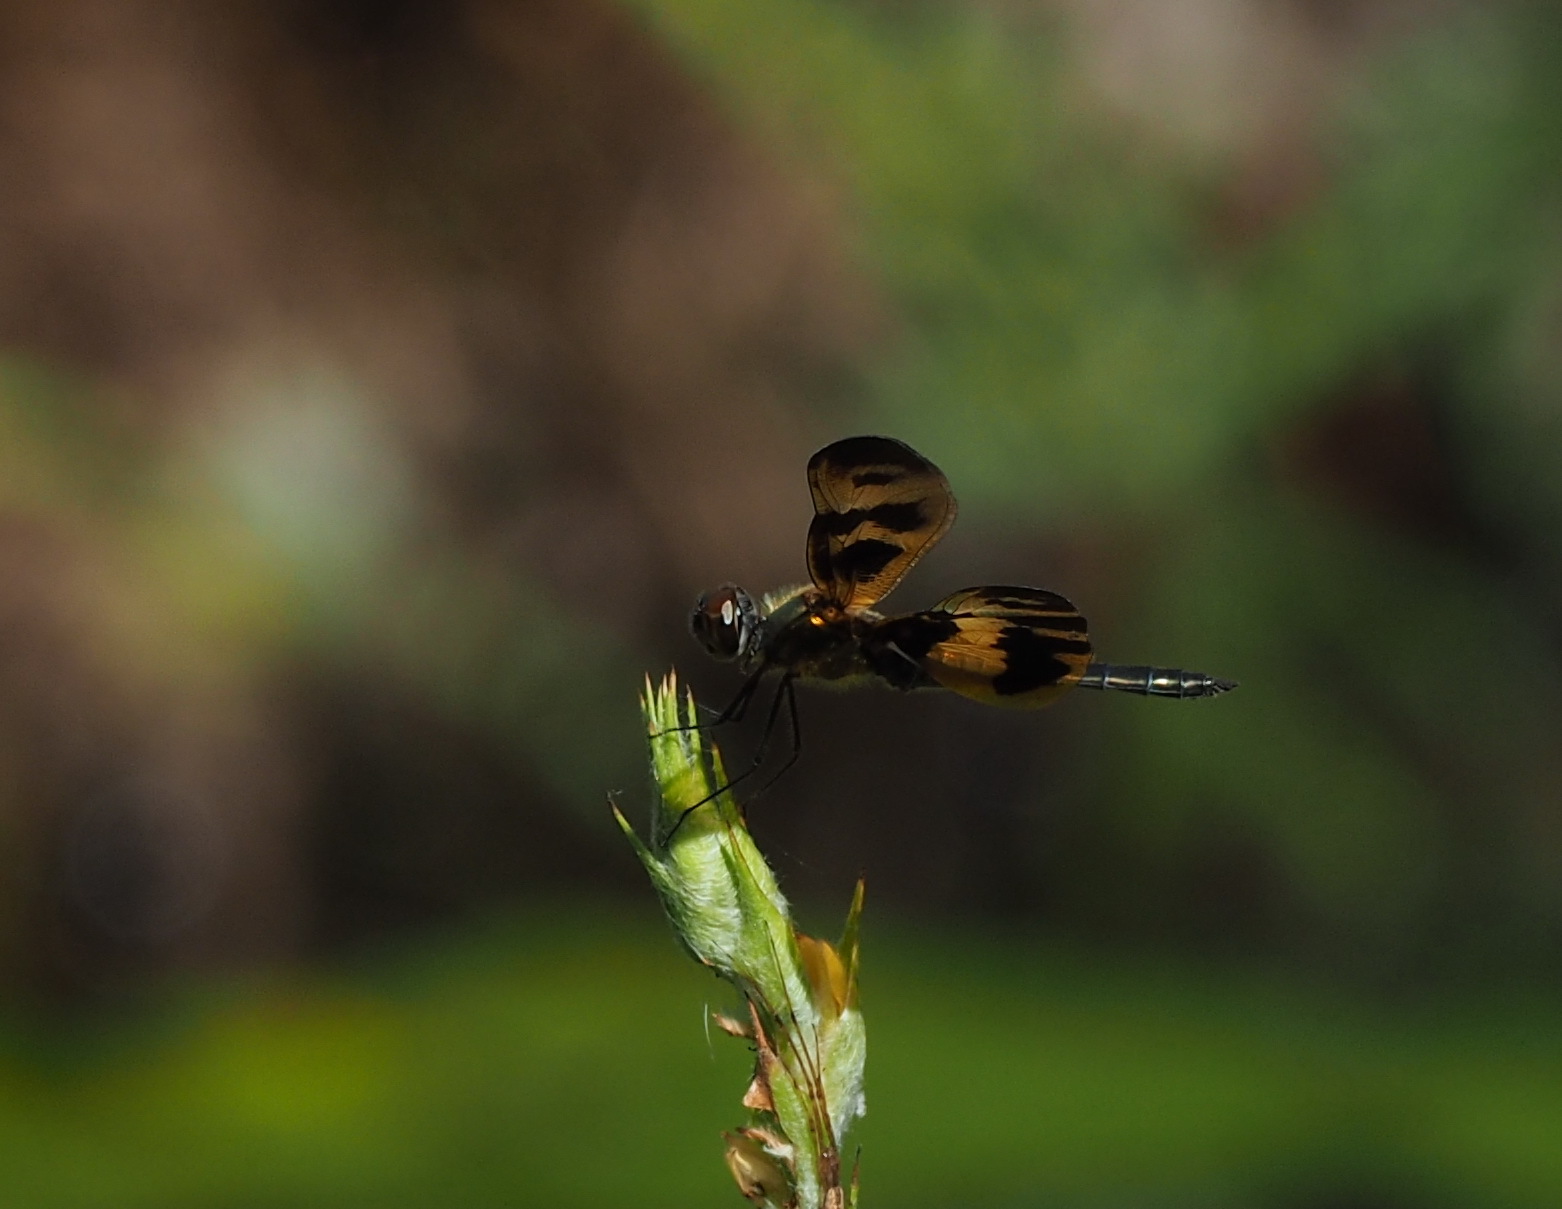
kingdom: Animalia
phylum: Arthropoda
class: Insecta
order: Odonata
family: Libellulidae
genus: Rhyothemis
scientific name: Rhyothemis variegata
